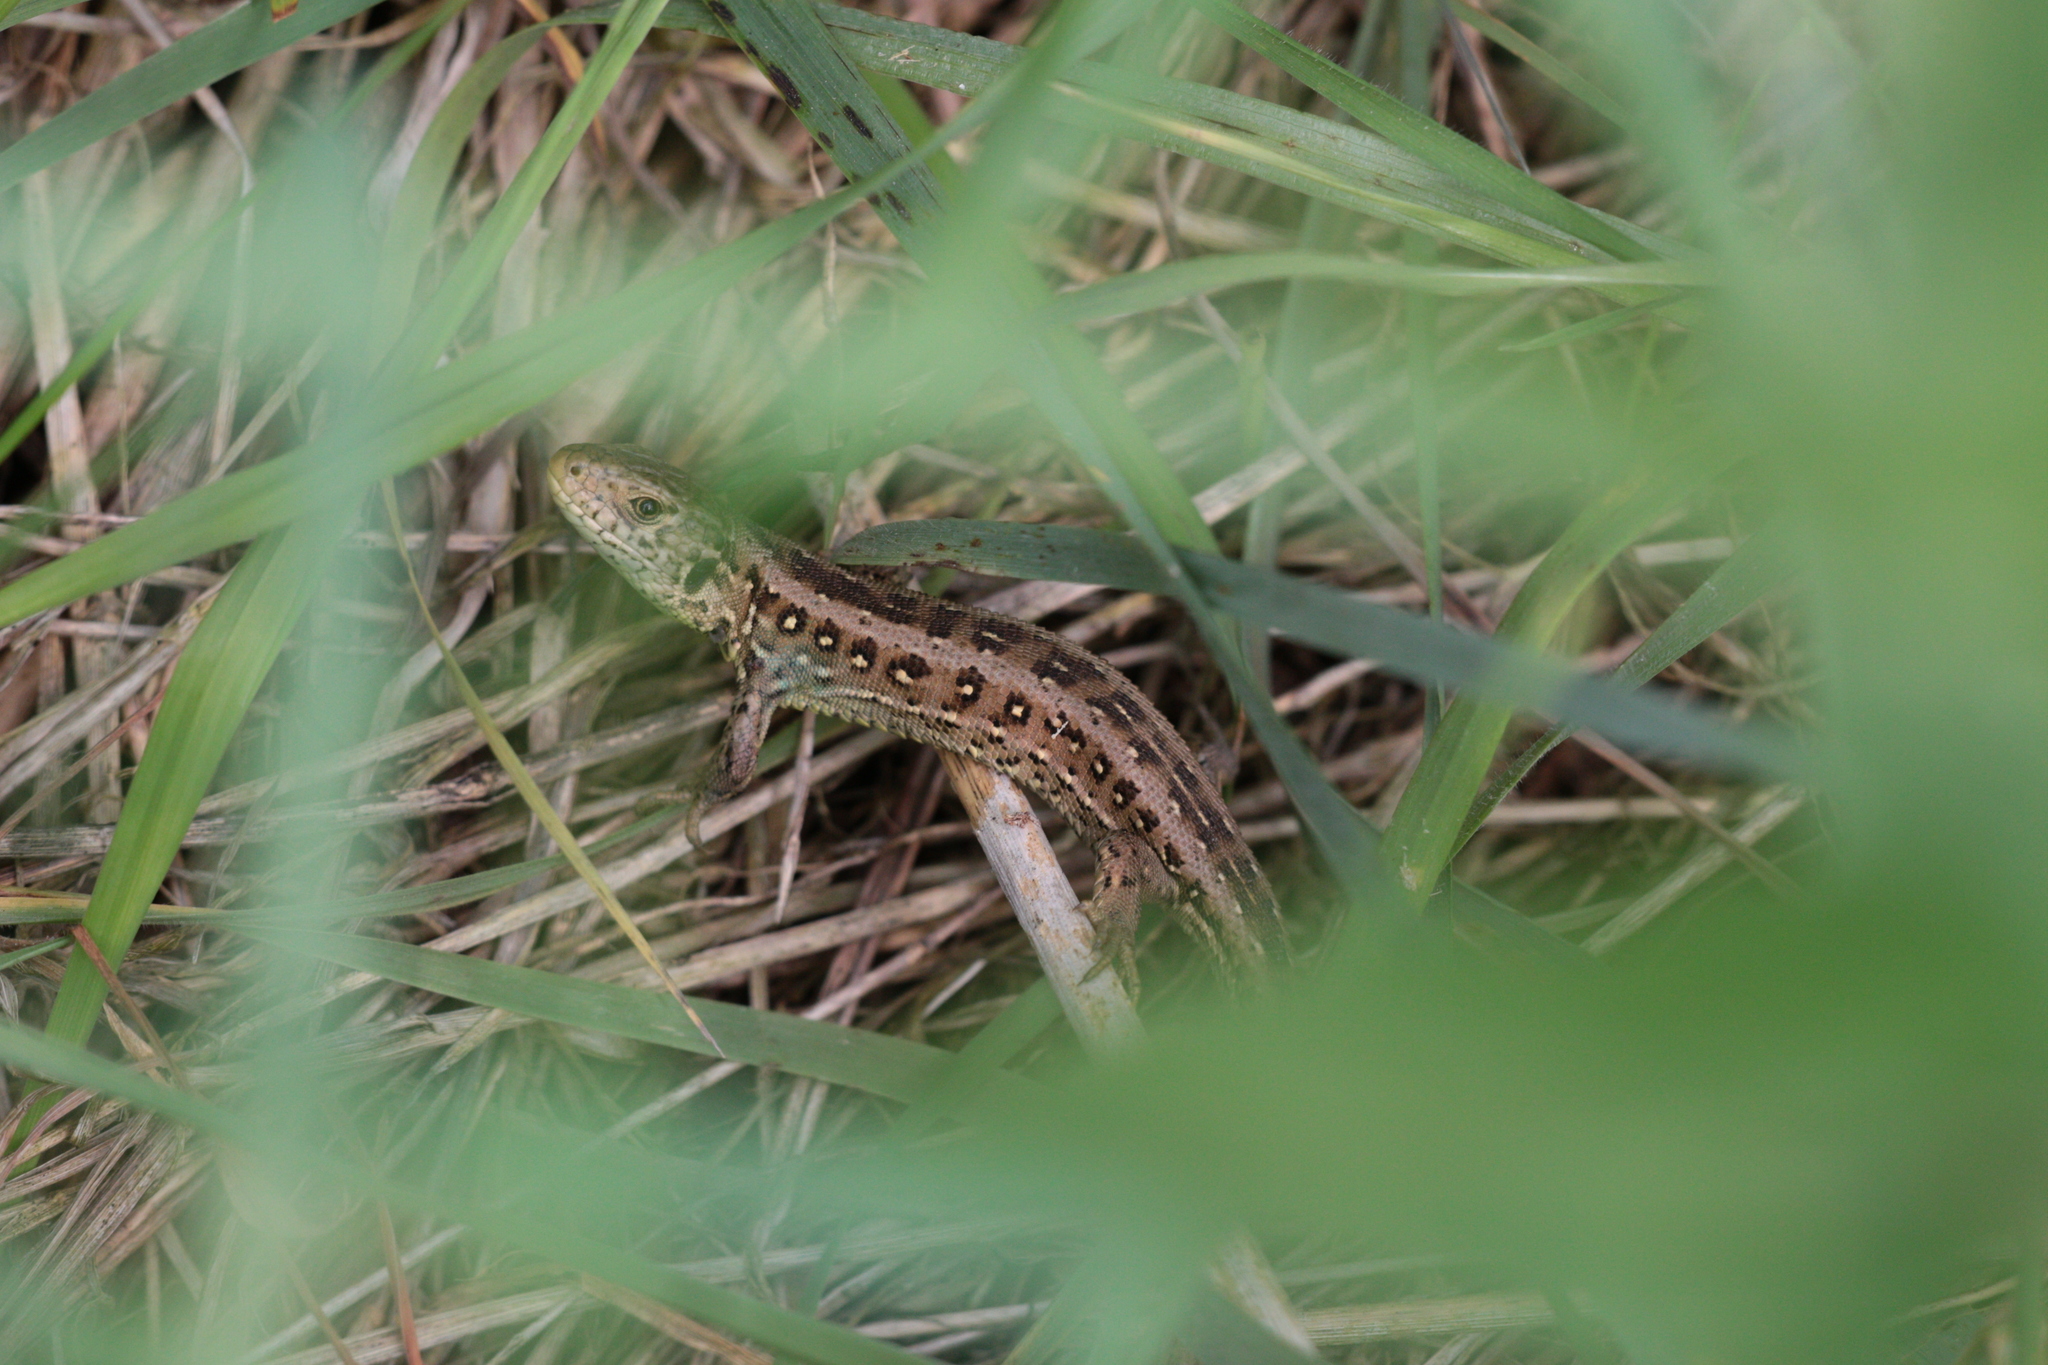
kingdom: Animalia
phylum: Chordata
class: Squamata
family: Lacertidae
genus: Lacerta
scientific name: Lacerta agilis
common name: Sand lizard
